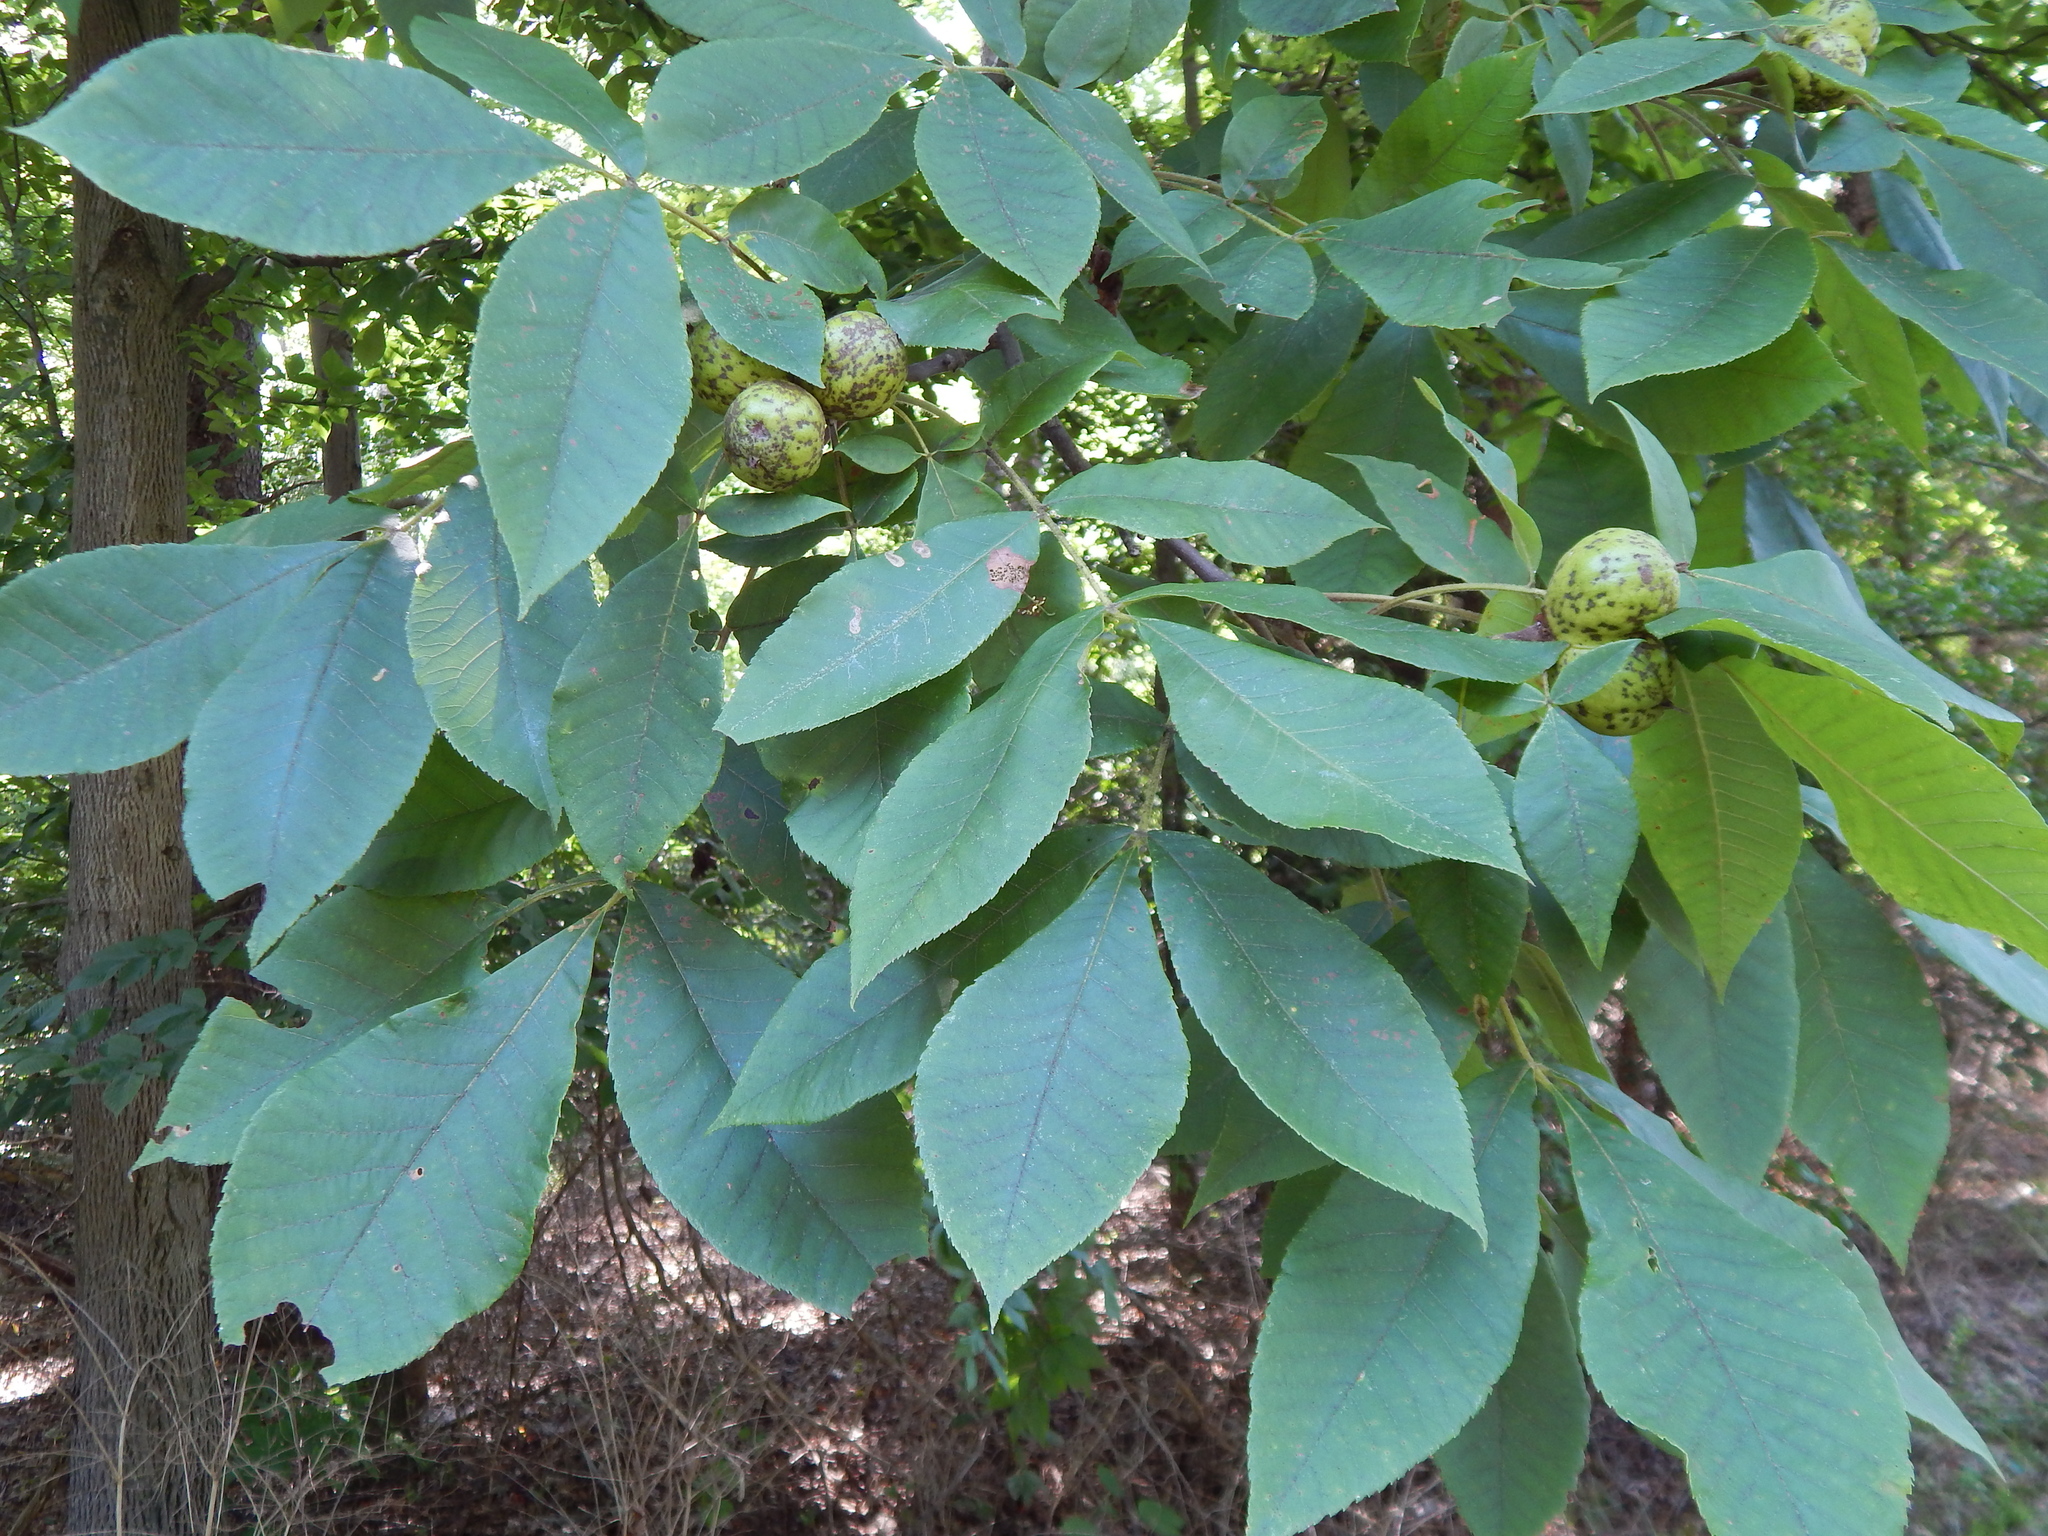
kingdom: Plantae
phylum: Tracheophyta
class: Magnoliopsida
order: Fagales
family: Juglandaceae
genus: Carya
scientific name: Carya alba
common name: Mockernut hickory
